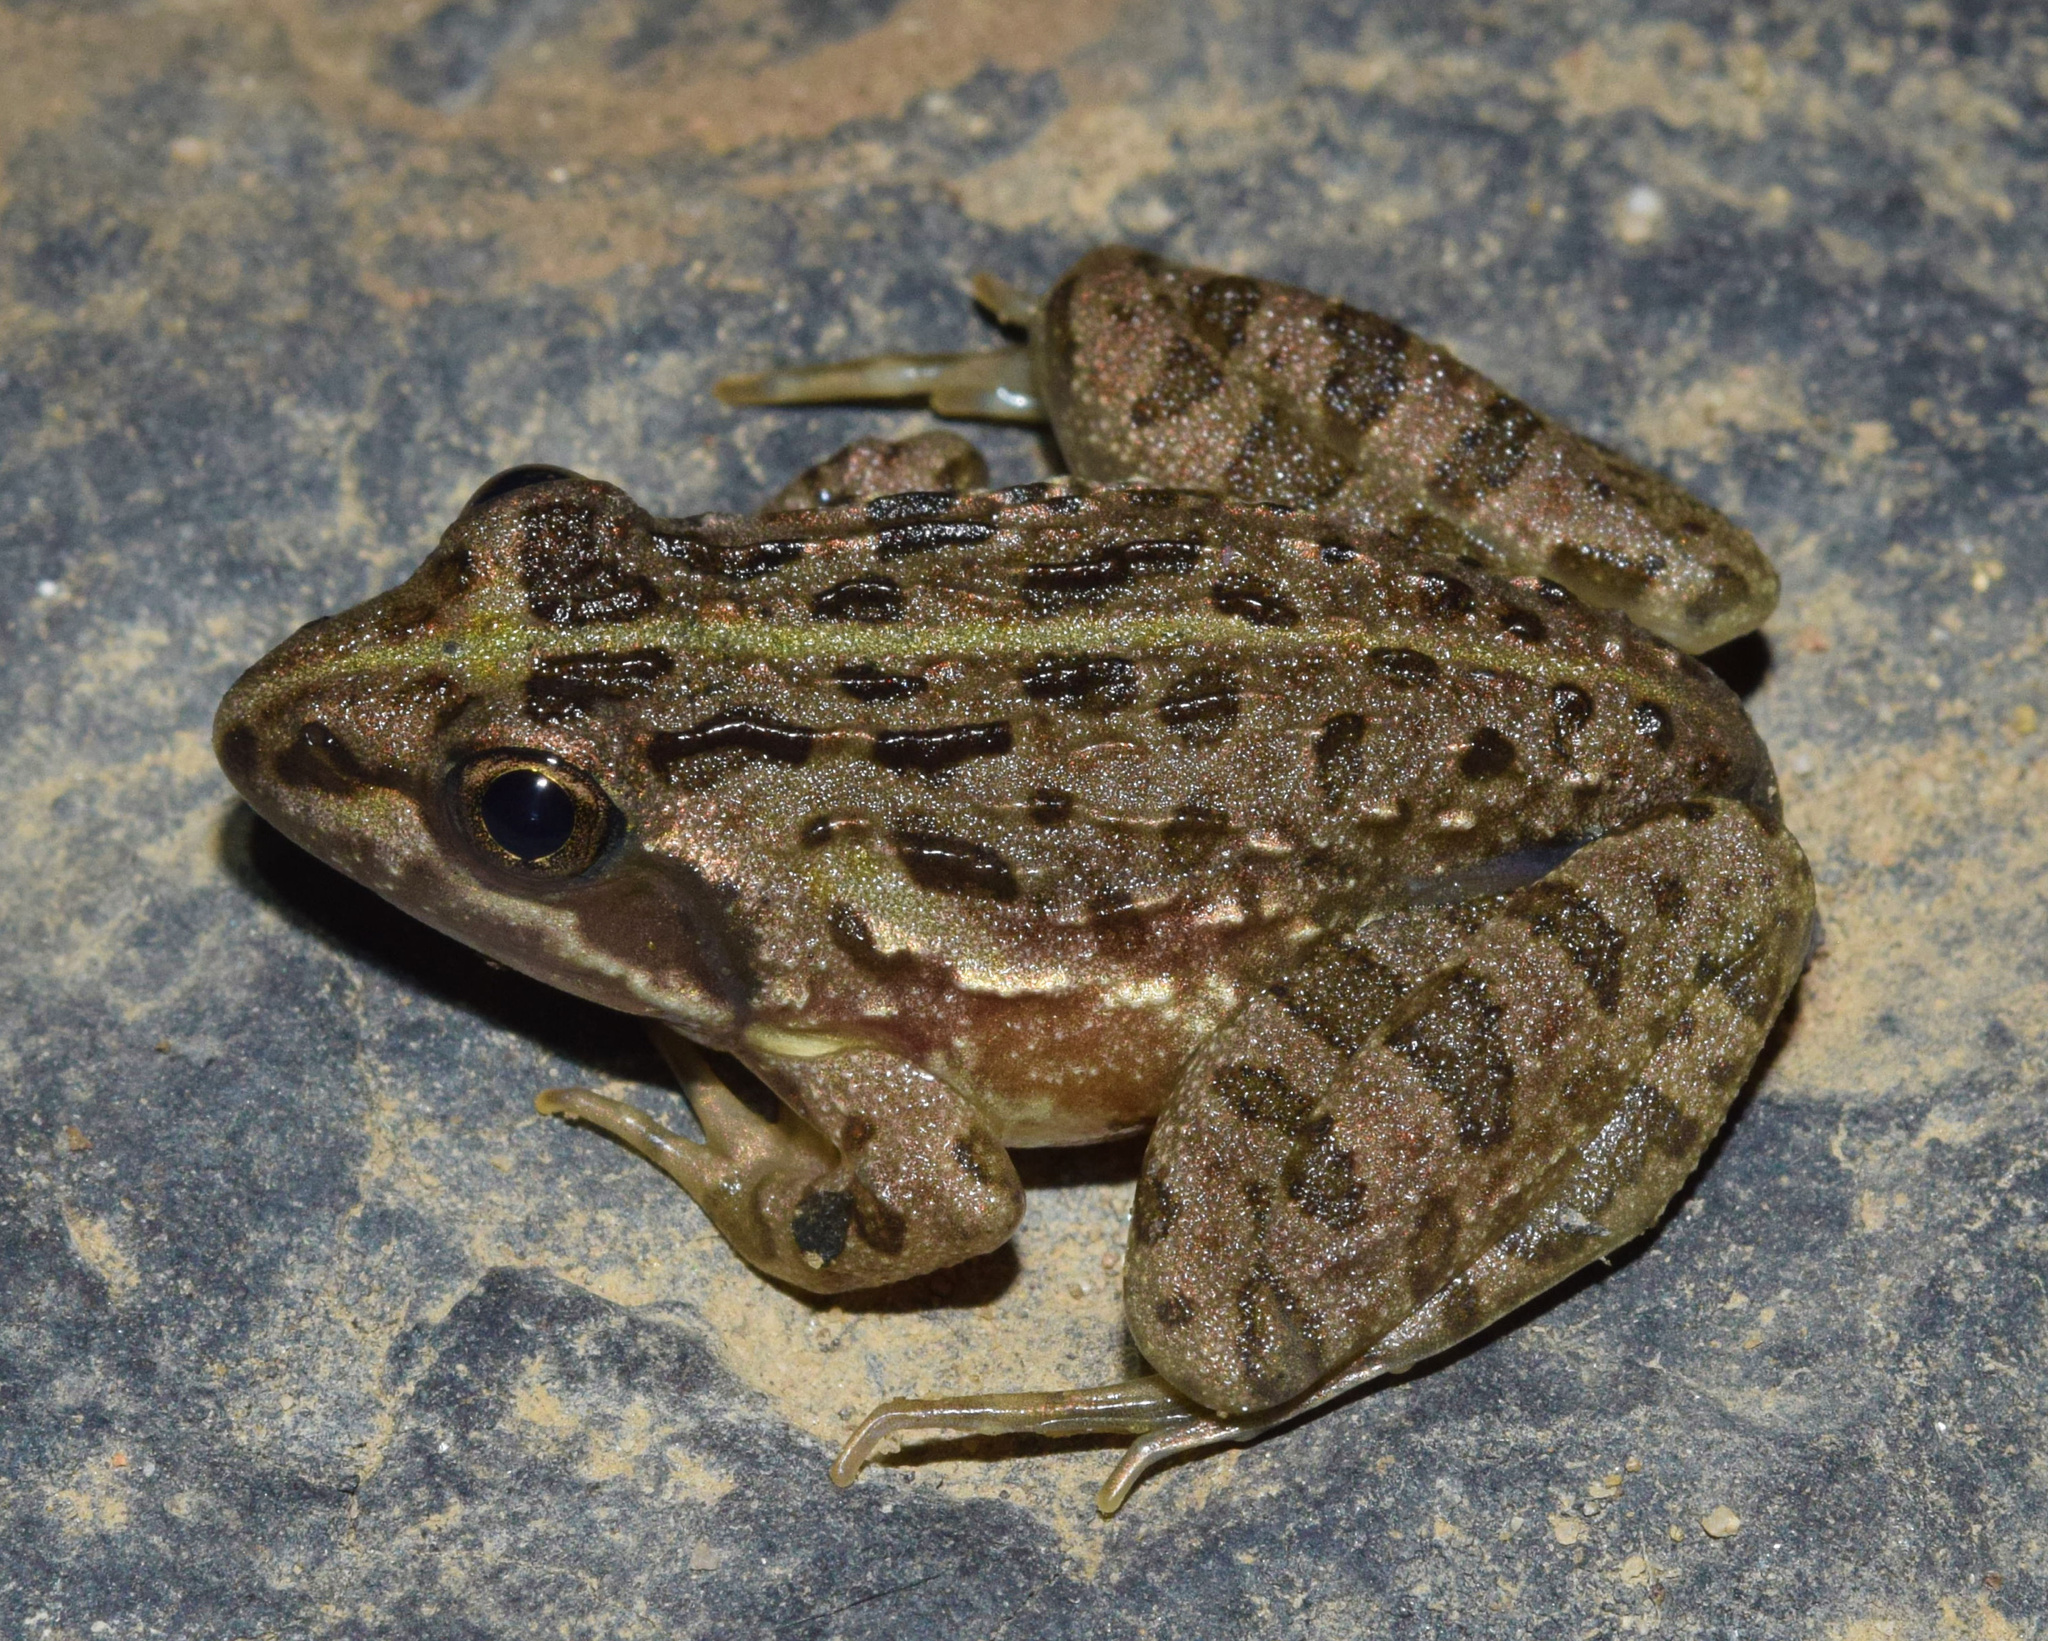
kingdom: Animalia
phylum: Chordata
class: Amphibia
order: Anura
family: Pyxicephalidae
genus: Amietia
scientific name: Amietia delalandii
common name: Delalande's river frog
